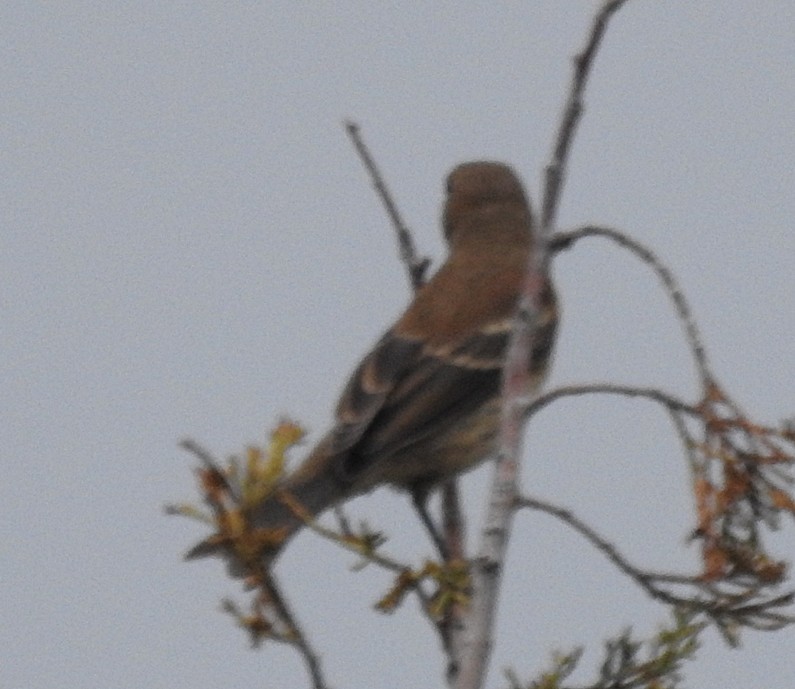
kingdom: Animalia
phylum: Chordata
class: Aves
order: Passeriformes
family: Cardinalidae
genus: Passerina
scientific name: Passerina caerulea
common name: Blue grosbeak
